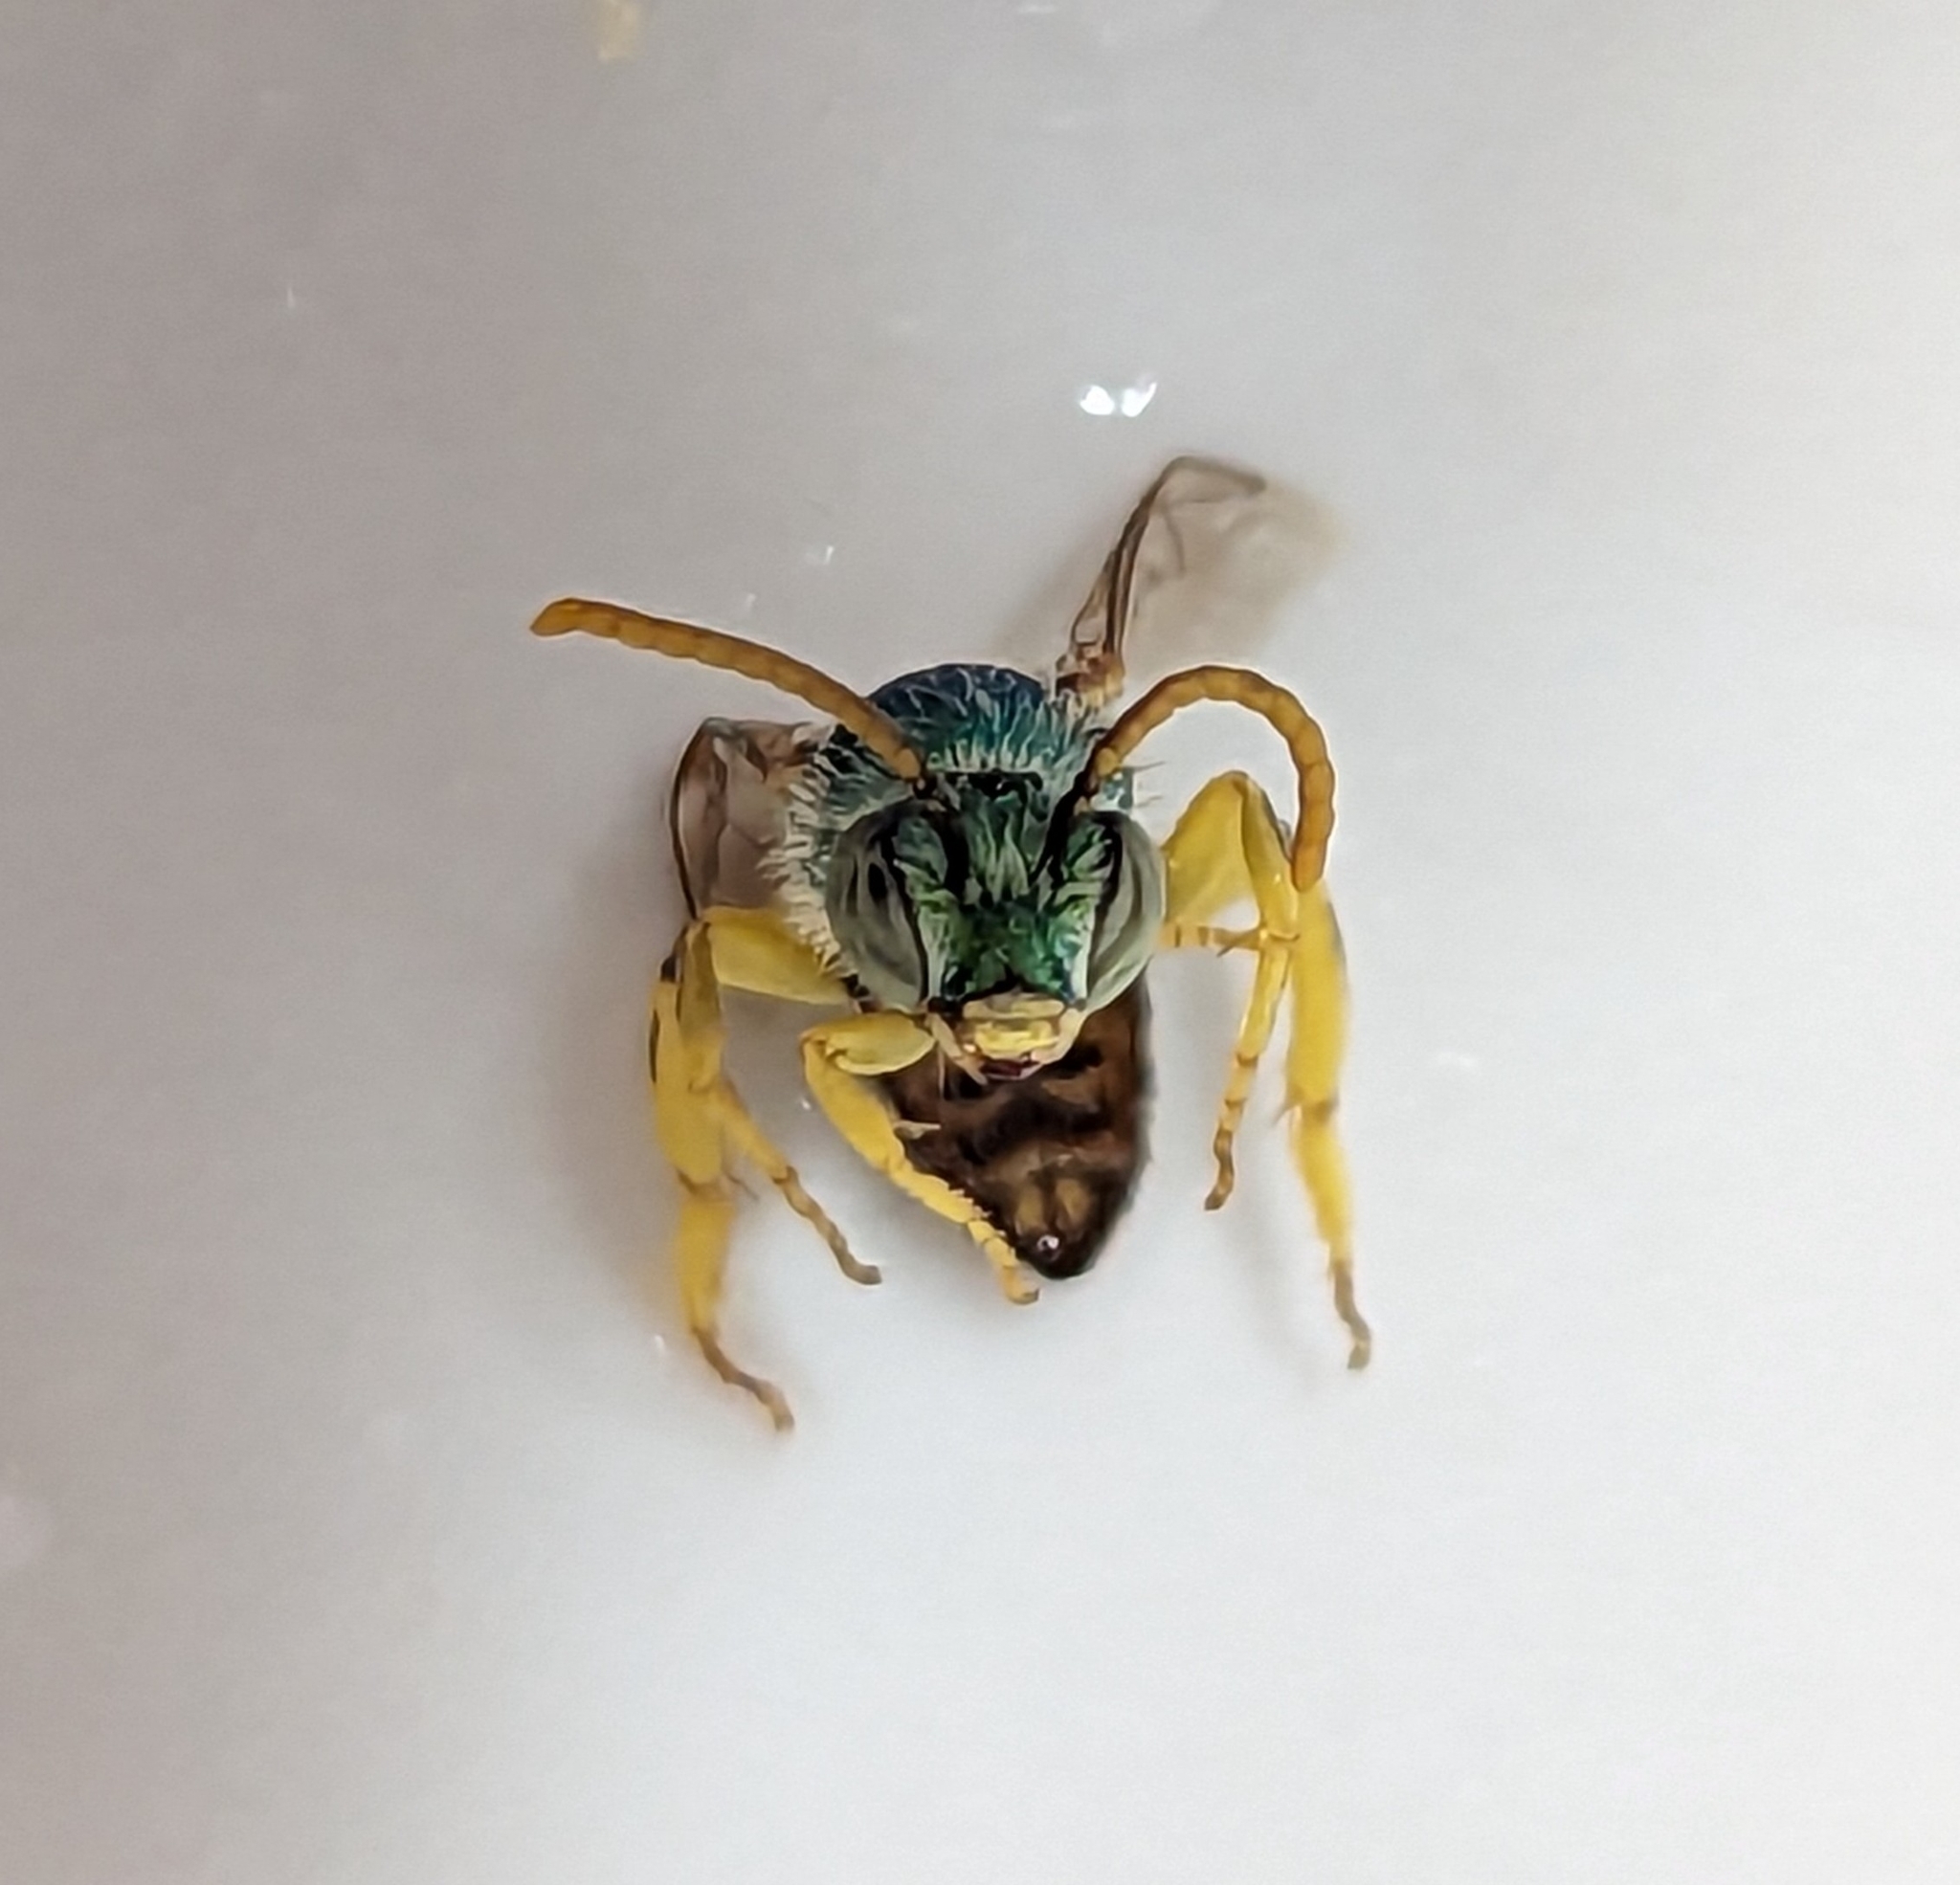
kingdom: Animalia
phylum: Arthropoda
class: Insecta
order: Hymenoptera
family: Halictidae
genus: Agapostemon
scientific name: Agapostemon texanus
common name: Texas striped sweat bee
